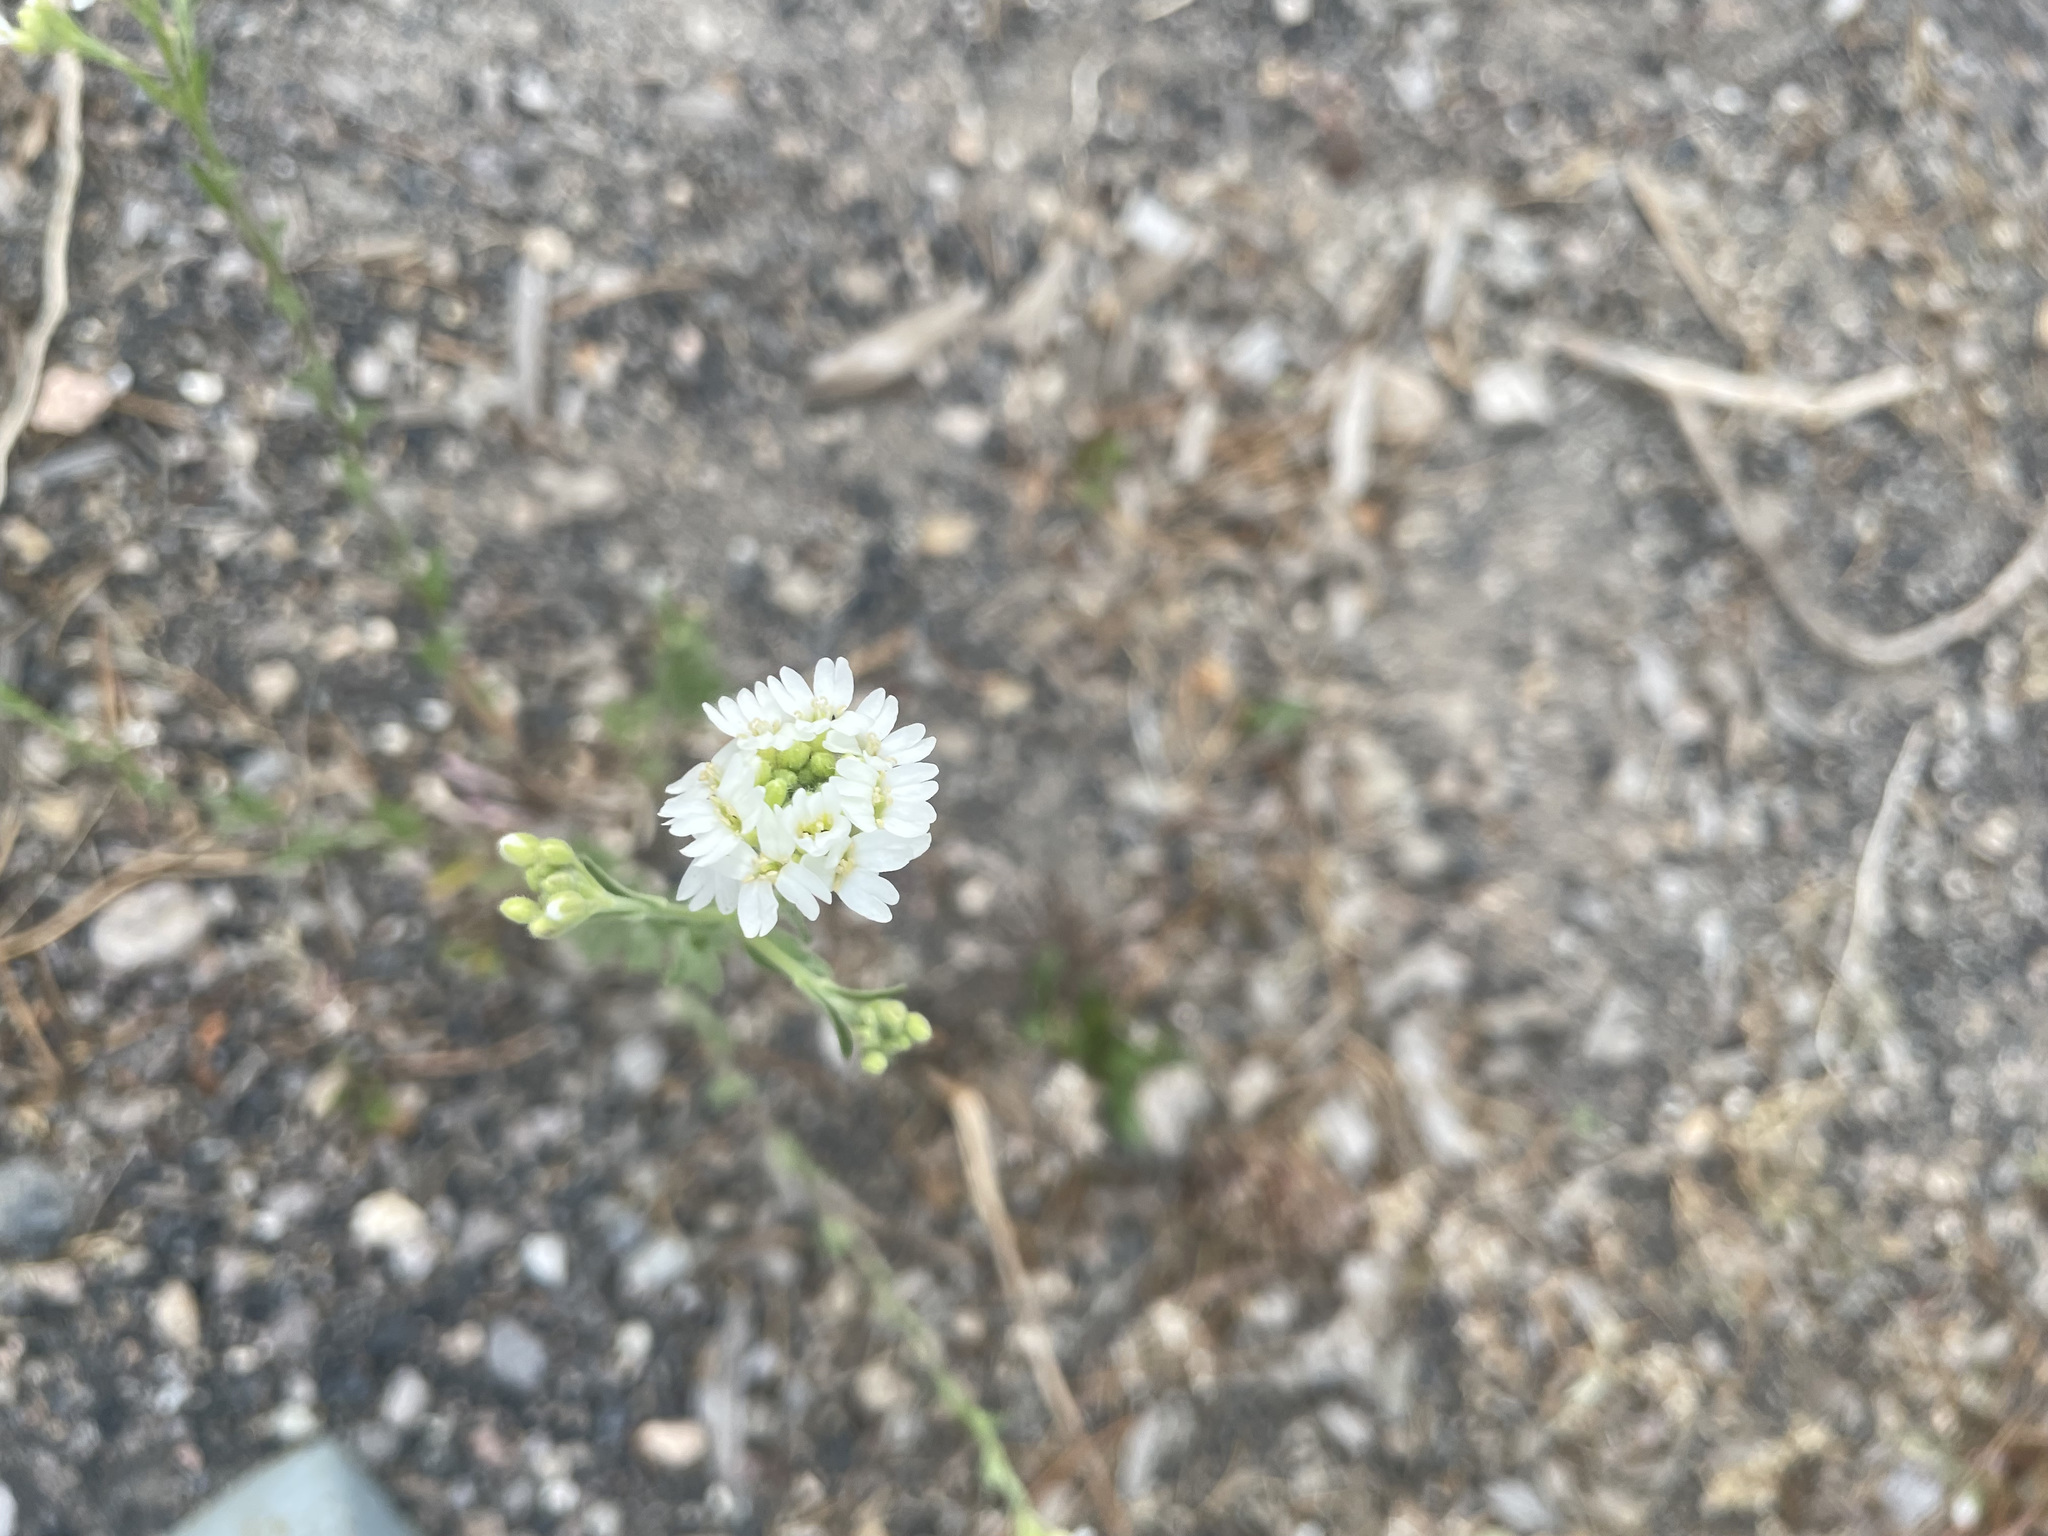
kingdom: Plantae
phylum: Tracheophyta
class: Magnoliopsida
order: Brassicales
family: Brassicaceae
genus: Berteroa
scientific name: Berteroa incana
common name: Hoary alison
